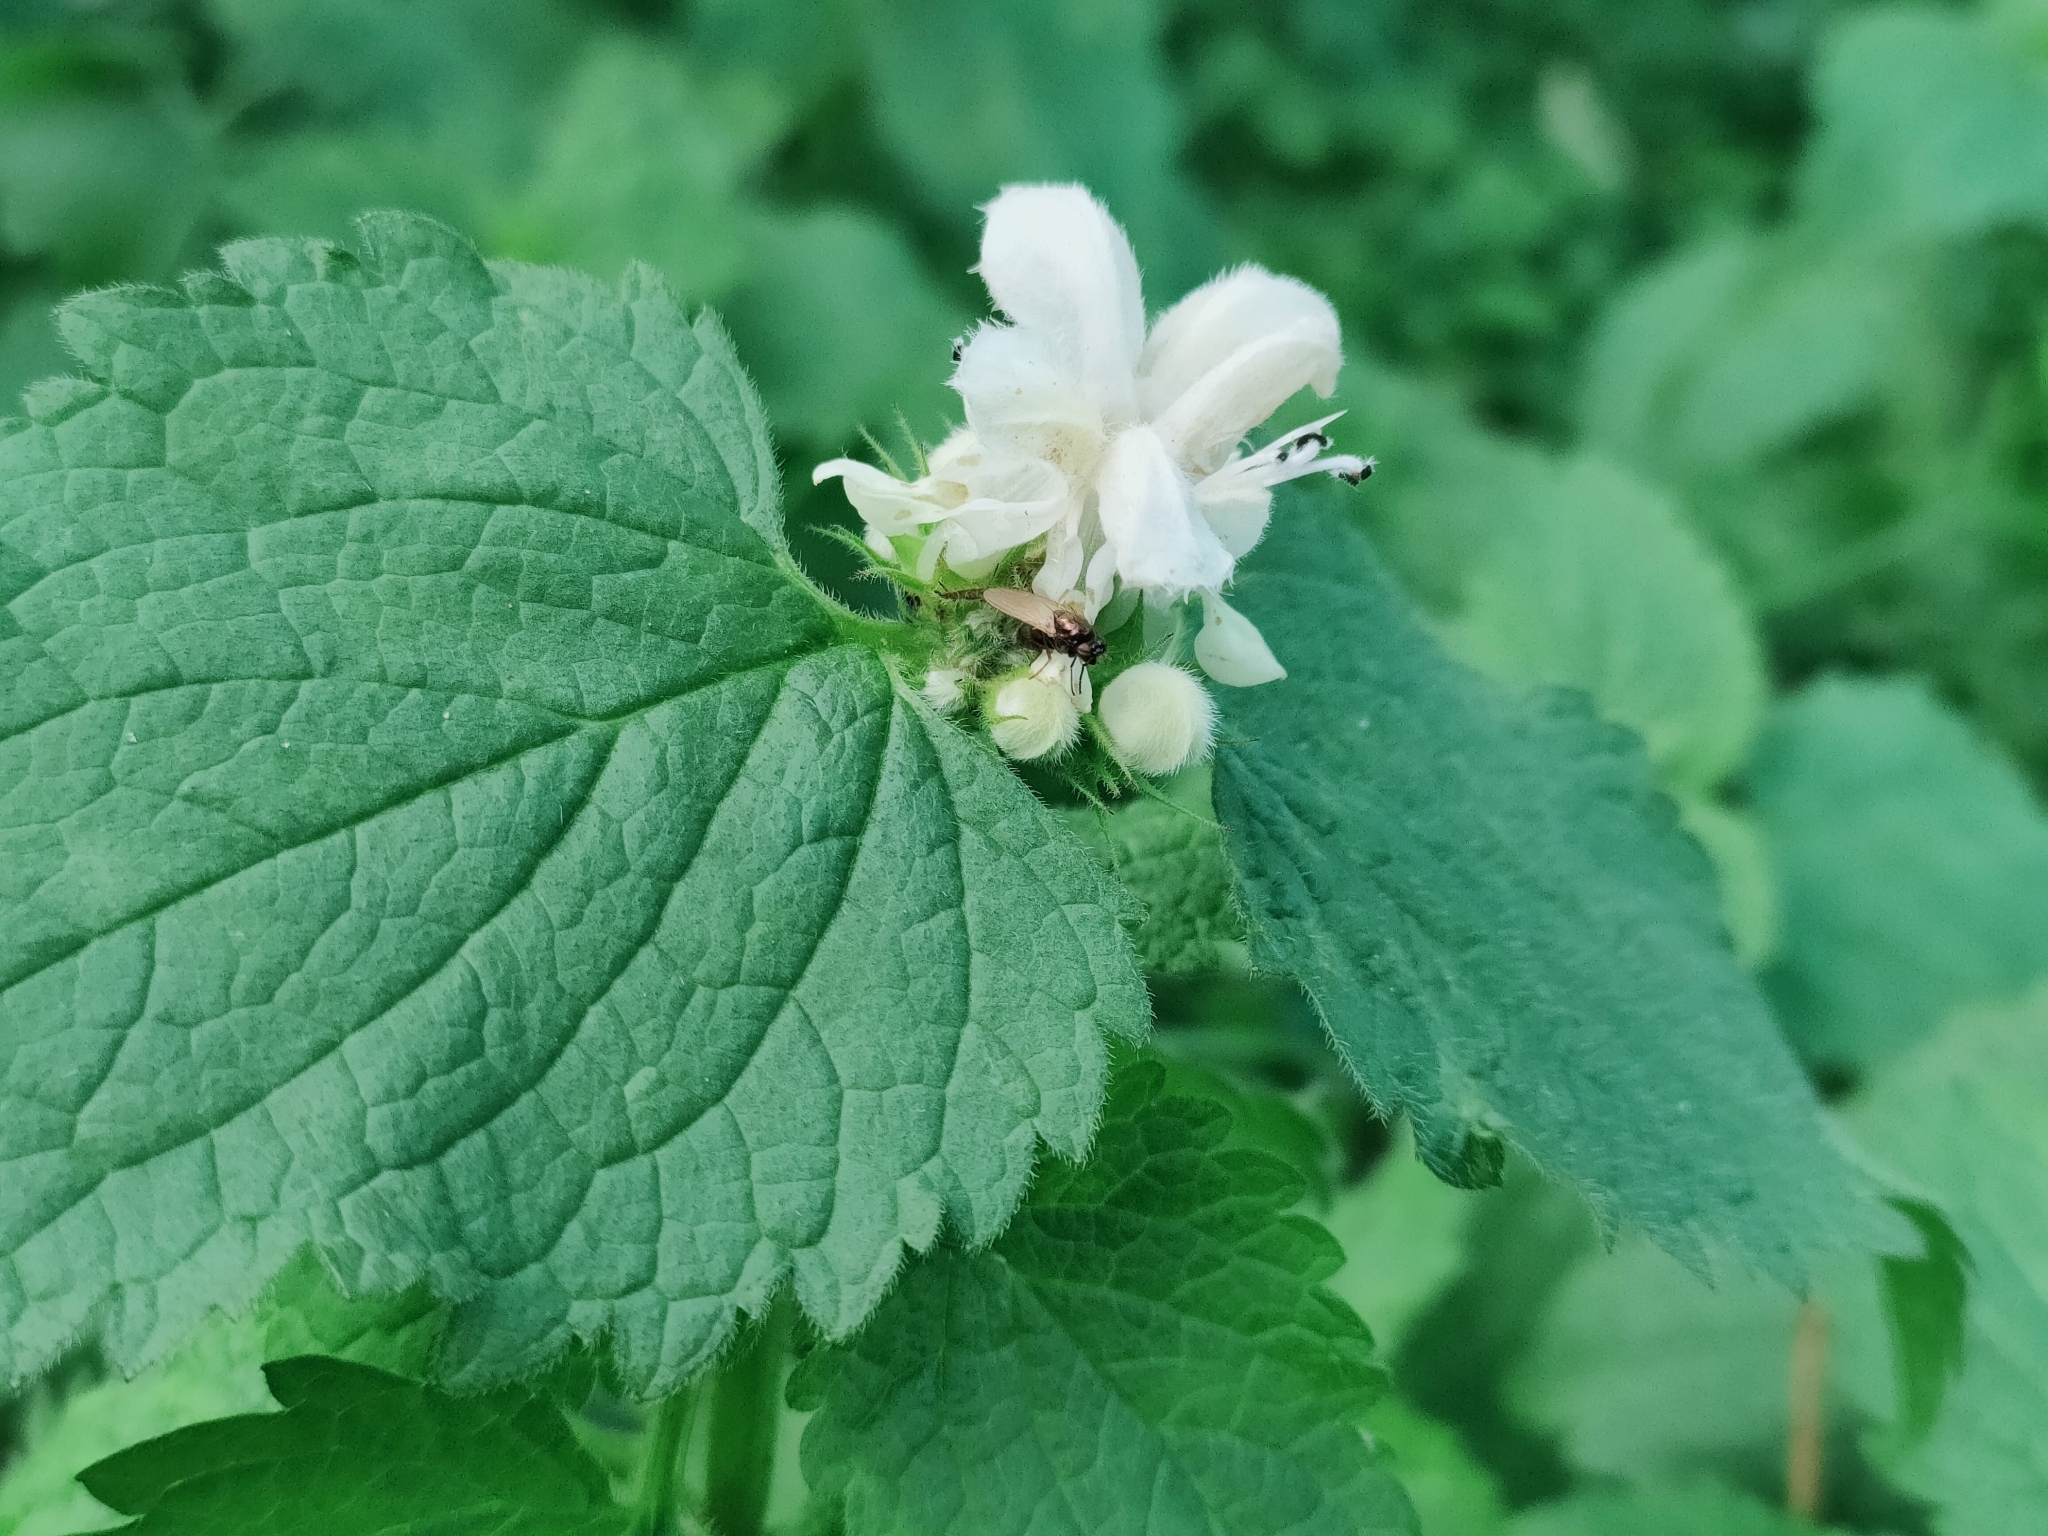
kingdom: Plantae
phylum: Tracheophyta
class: Magnoliopsida
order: Lamiales
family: Lamiaceae
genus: Lamium
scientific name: Lamium album
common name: White dead-nettle
